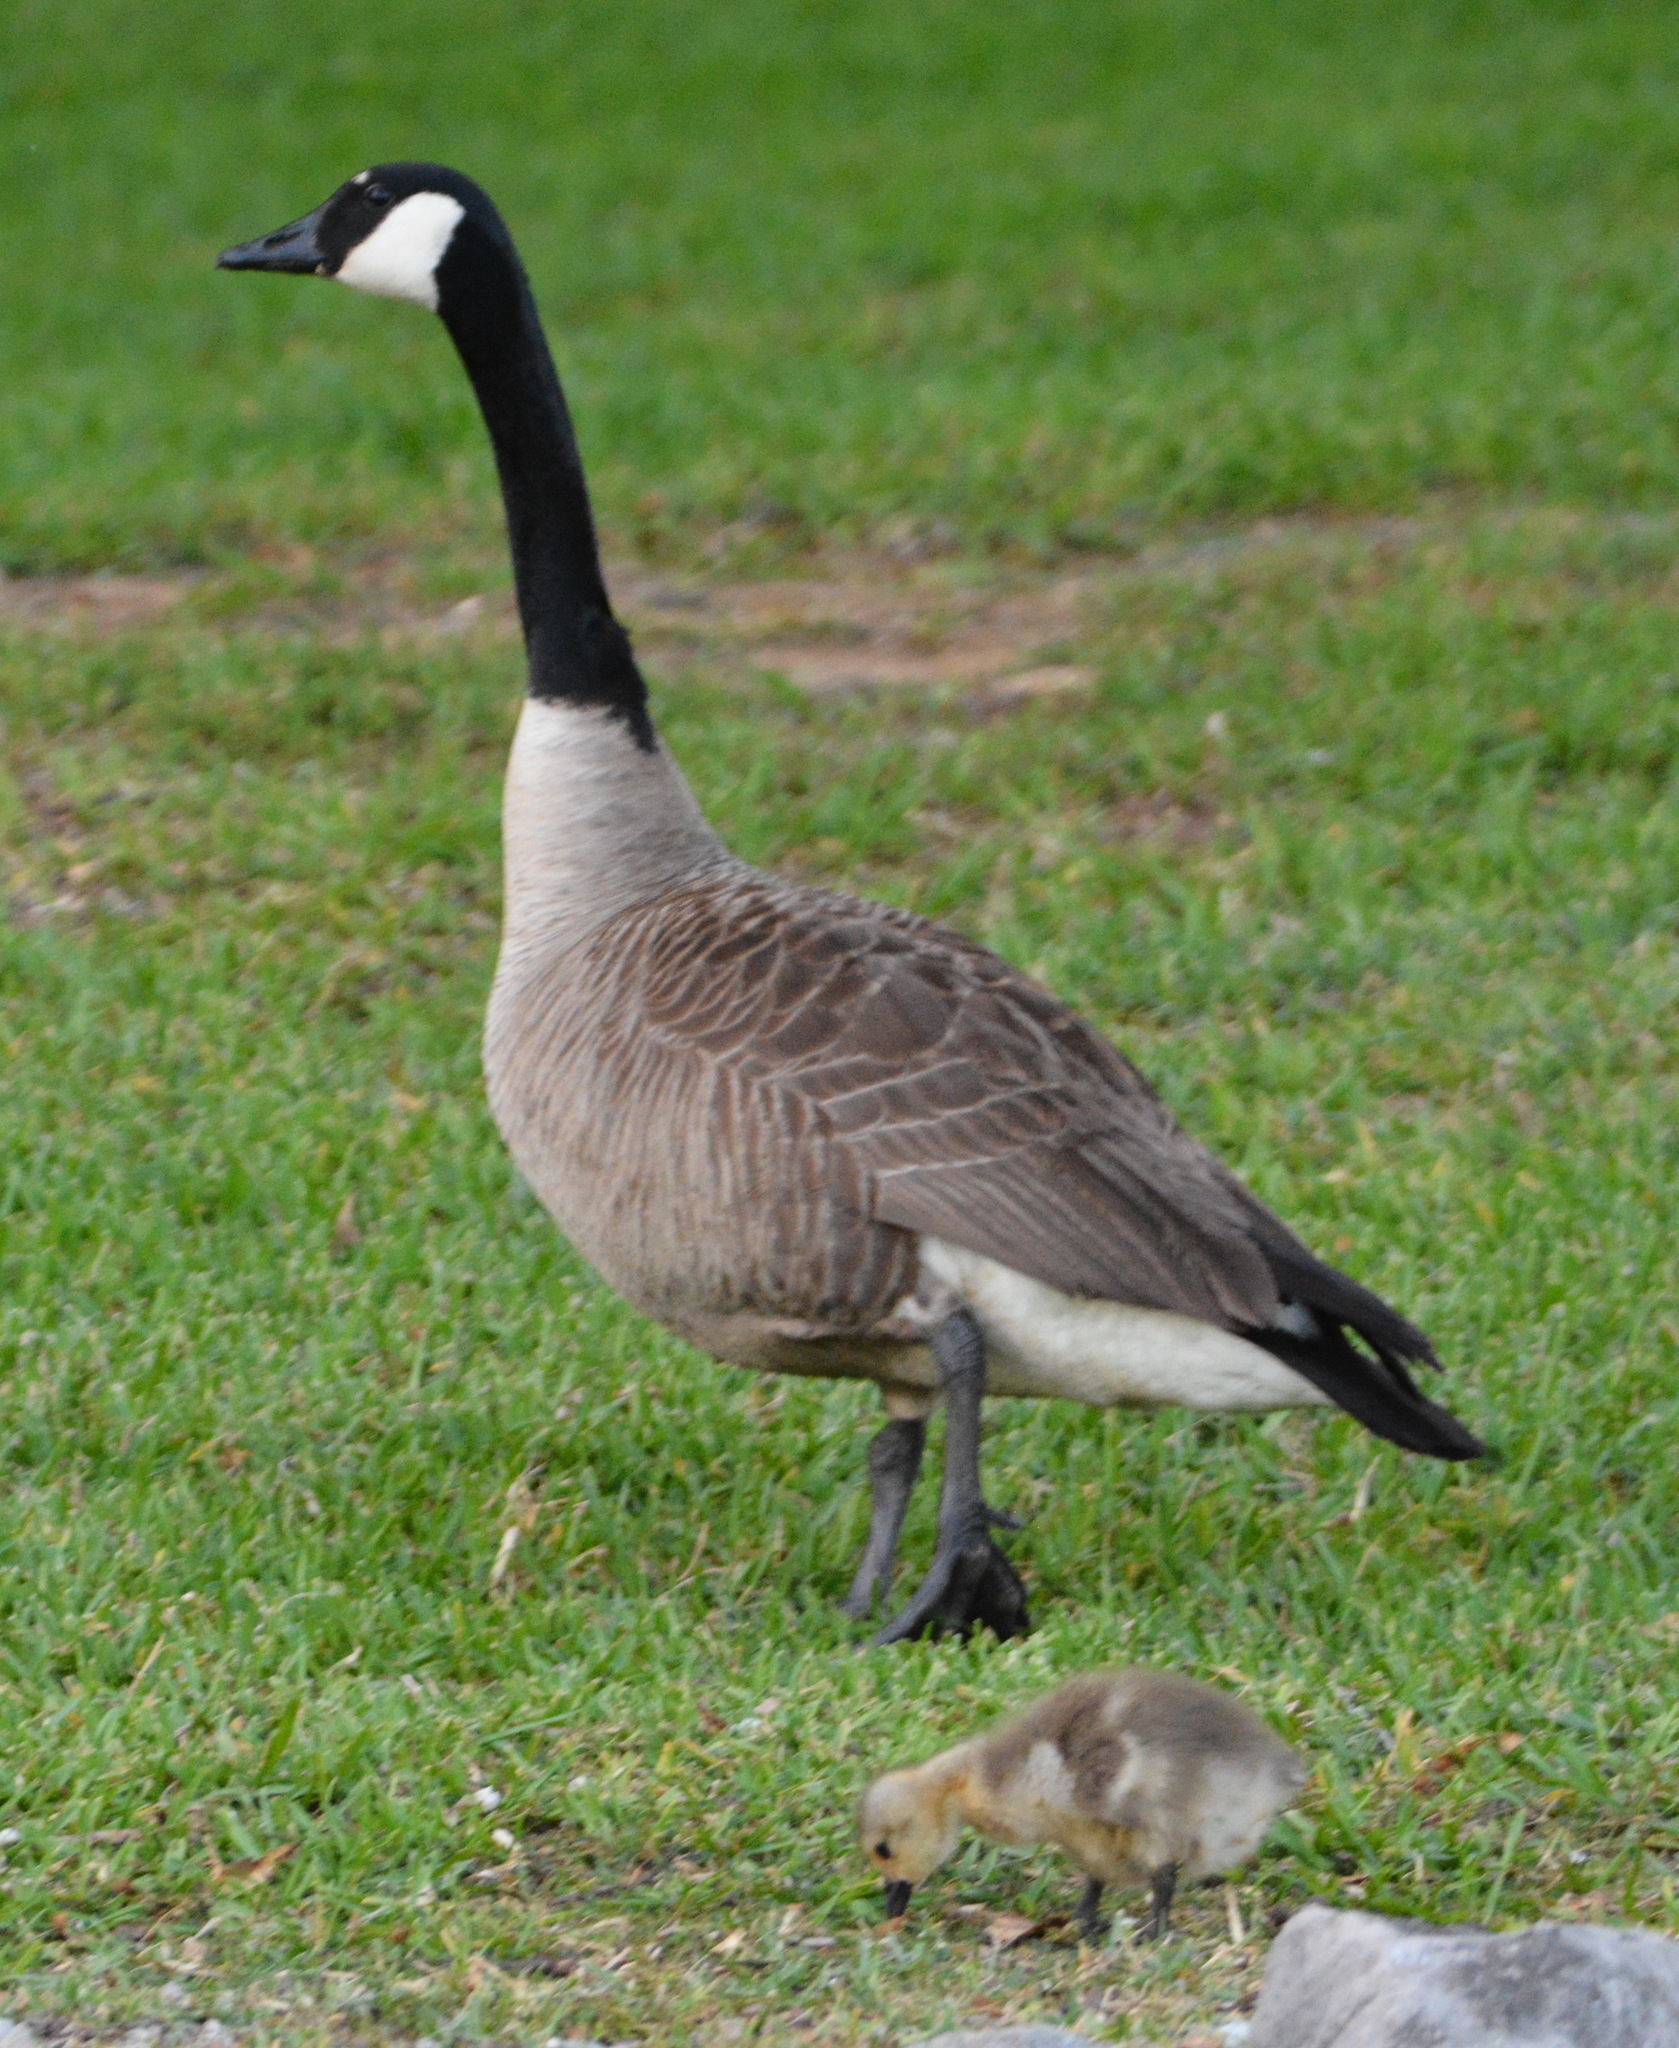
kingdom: Animalia
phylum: Chordata
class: Aves
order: Anseriformes
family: Anatidae
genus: Branta
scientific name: Branta canadensis
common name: Canada goose
